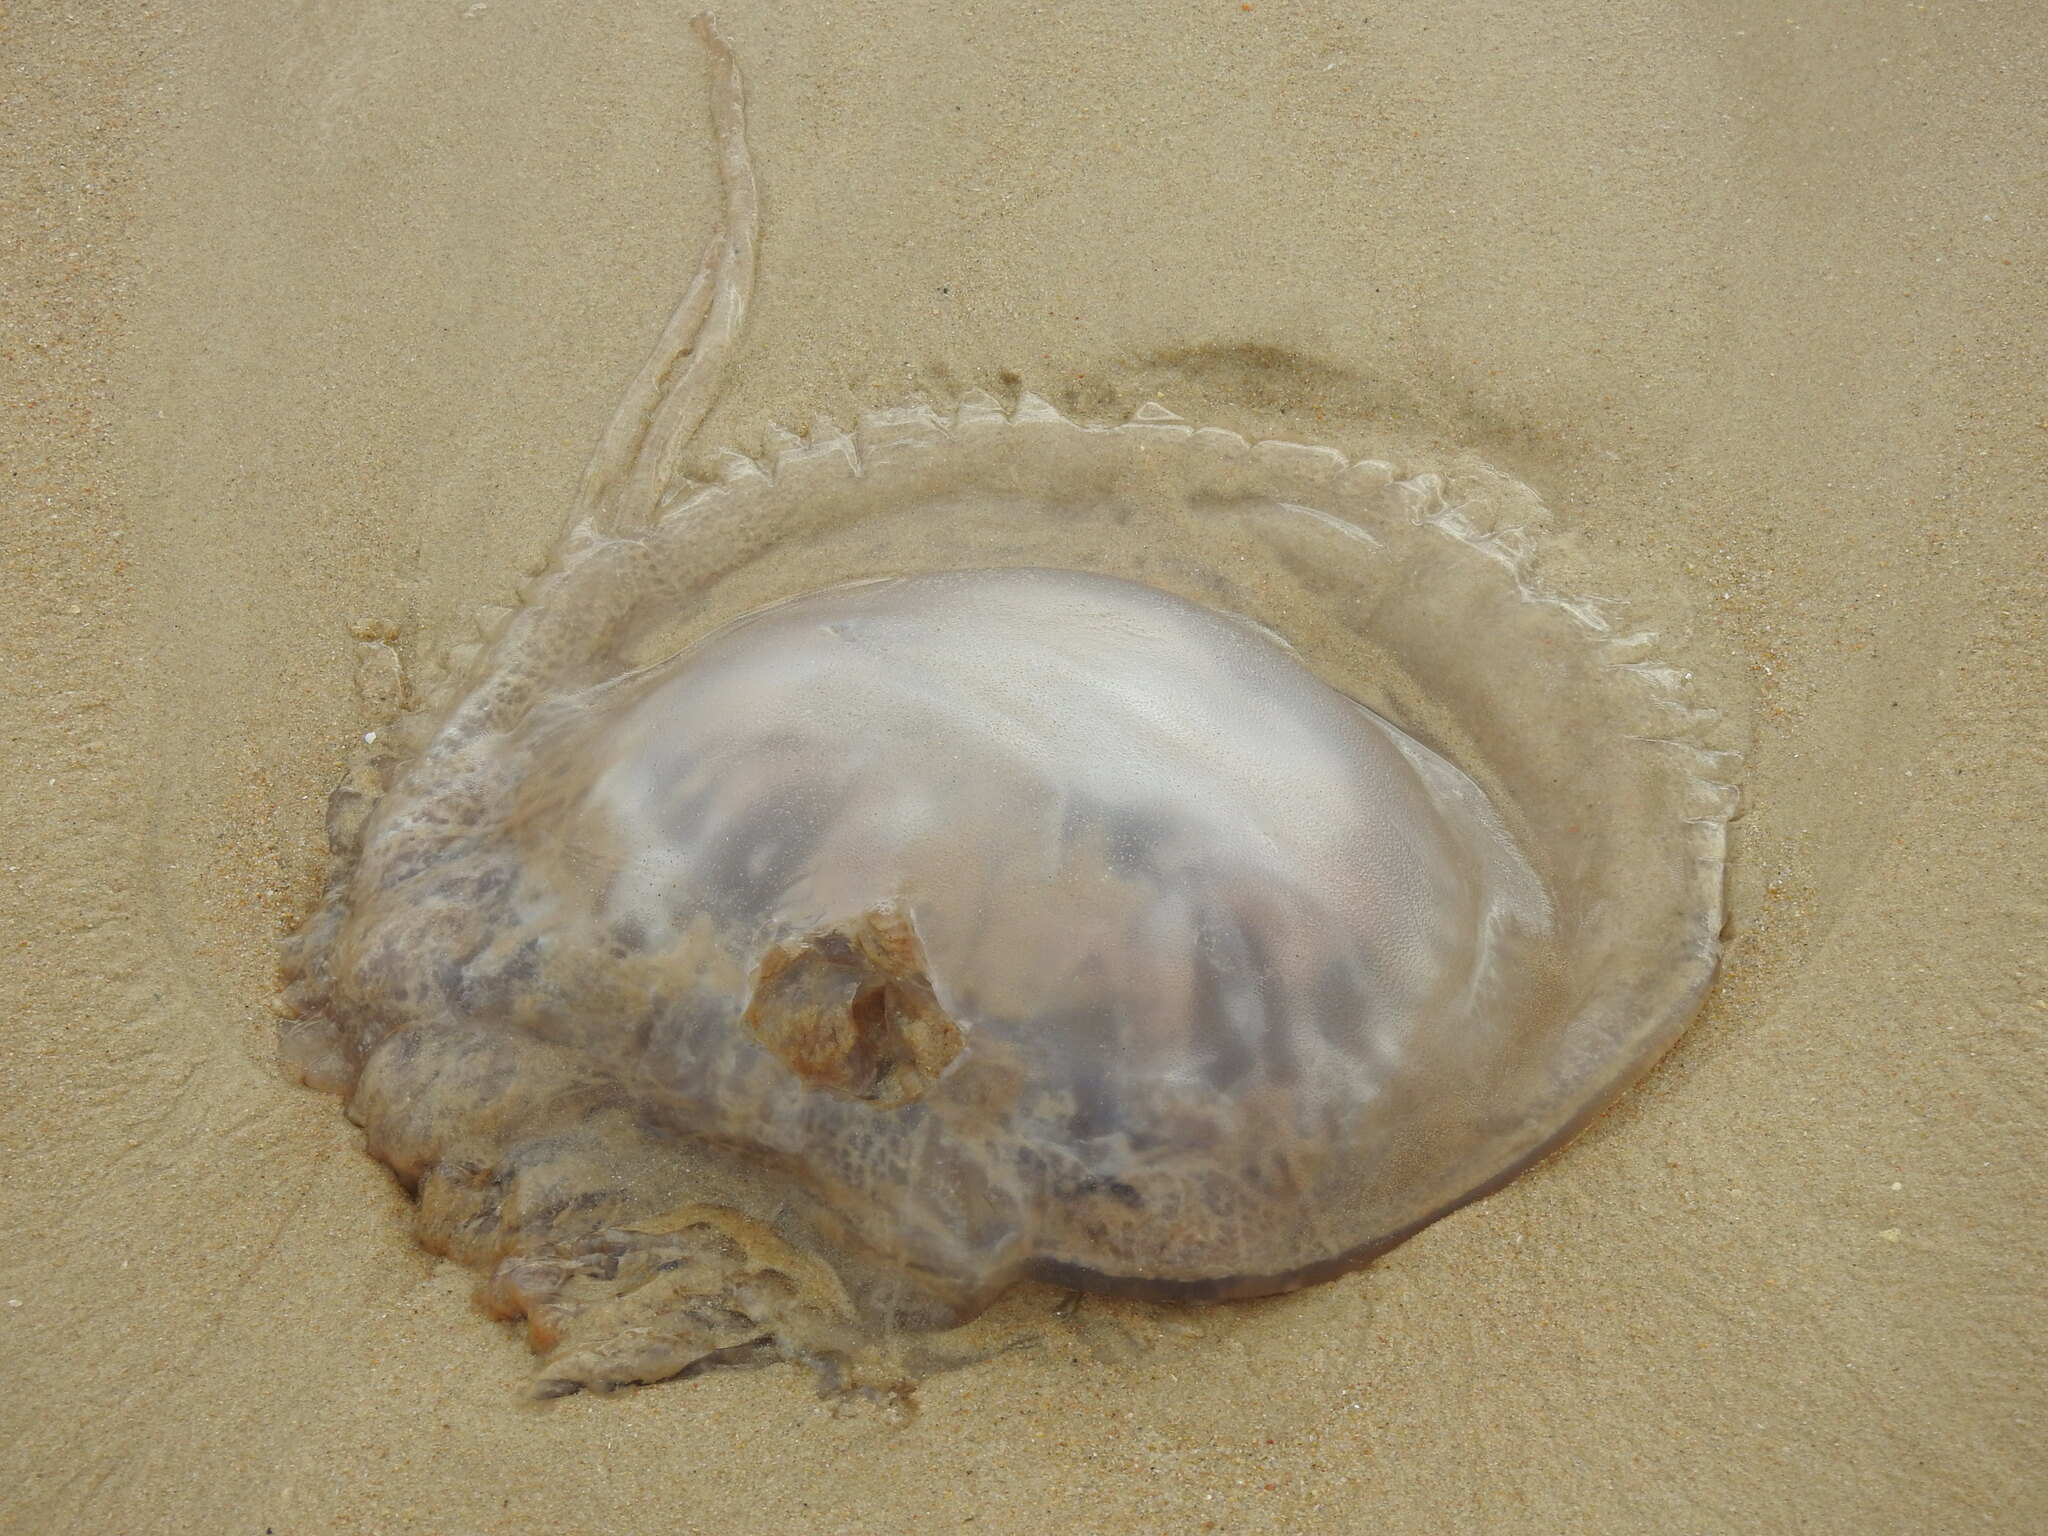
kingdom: Animalia
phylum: Cnidaria
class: Scyphozoa
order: Rhizostomeae
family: Rhizostomatidae
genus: Rhizostoma
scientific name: Rhizostoma luteum
